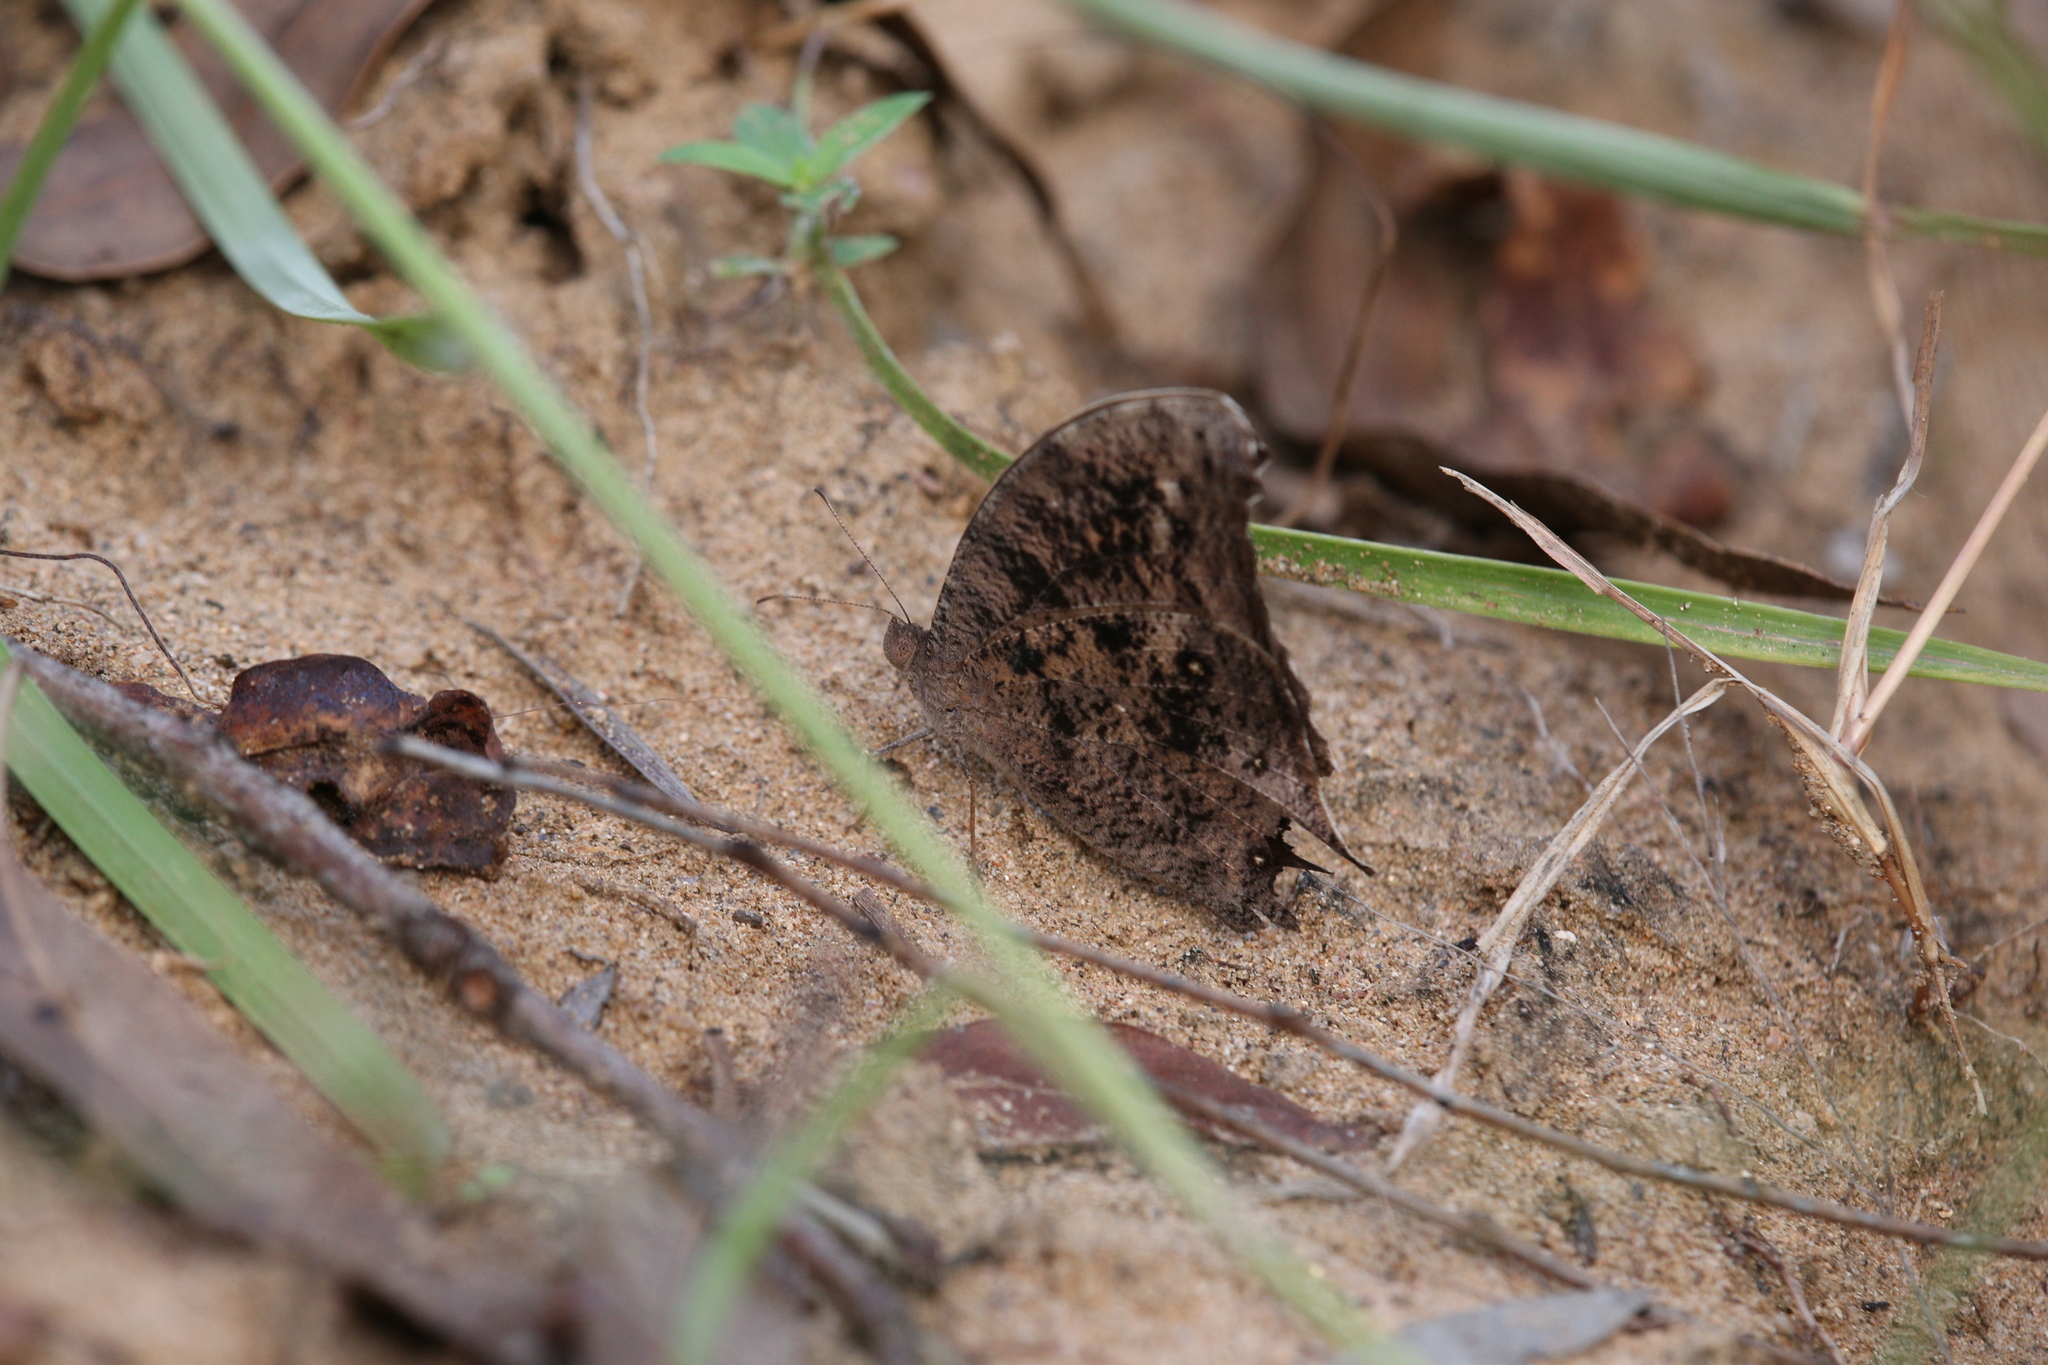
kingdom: Animalia
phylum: Arthropoda
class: Insecta
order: Lepidoptera
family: Nymphalidae
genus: Melanitis
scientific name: Melanitis leda
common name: Twilight brown
